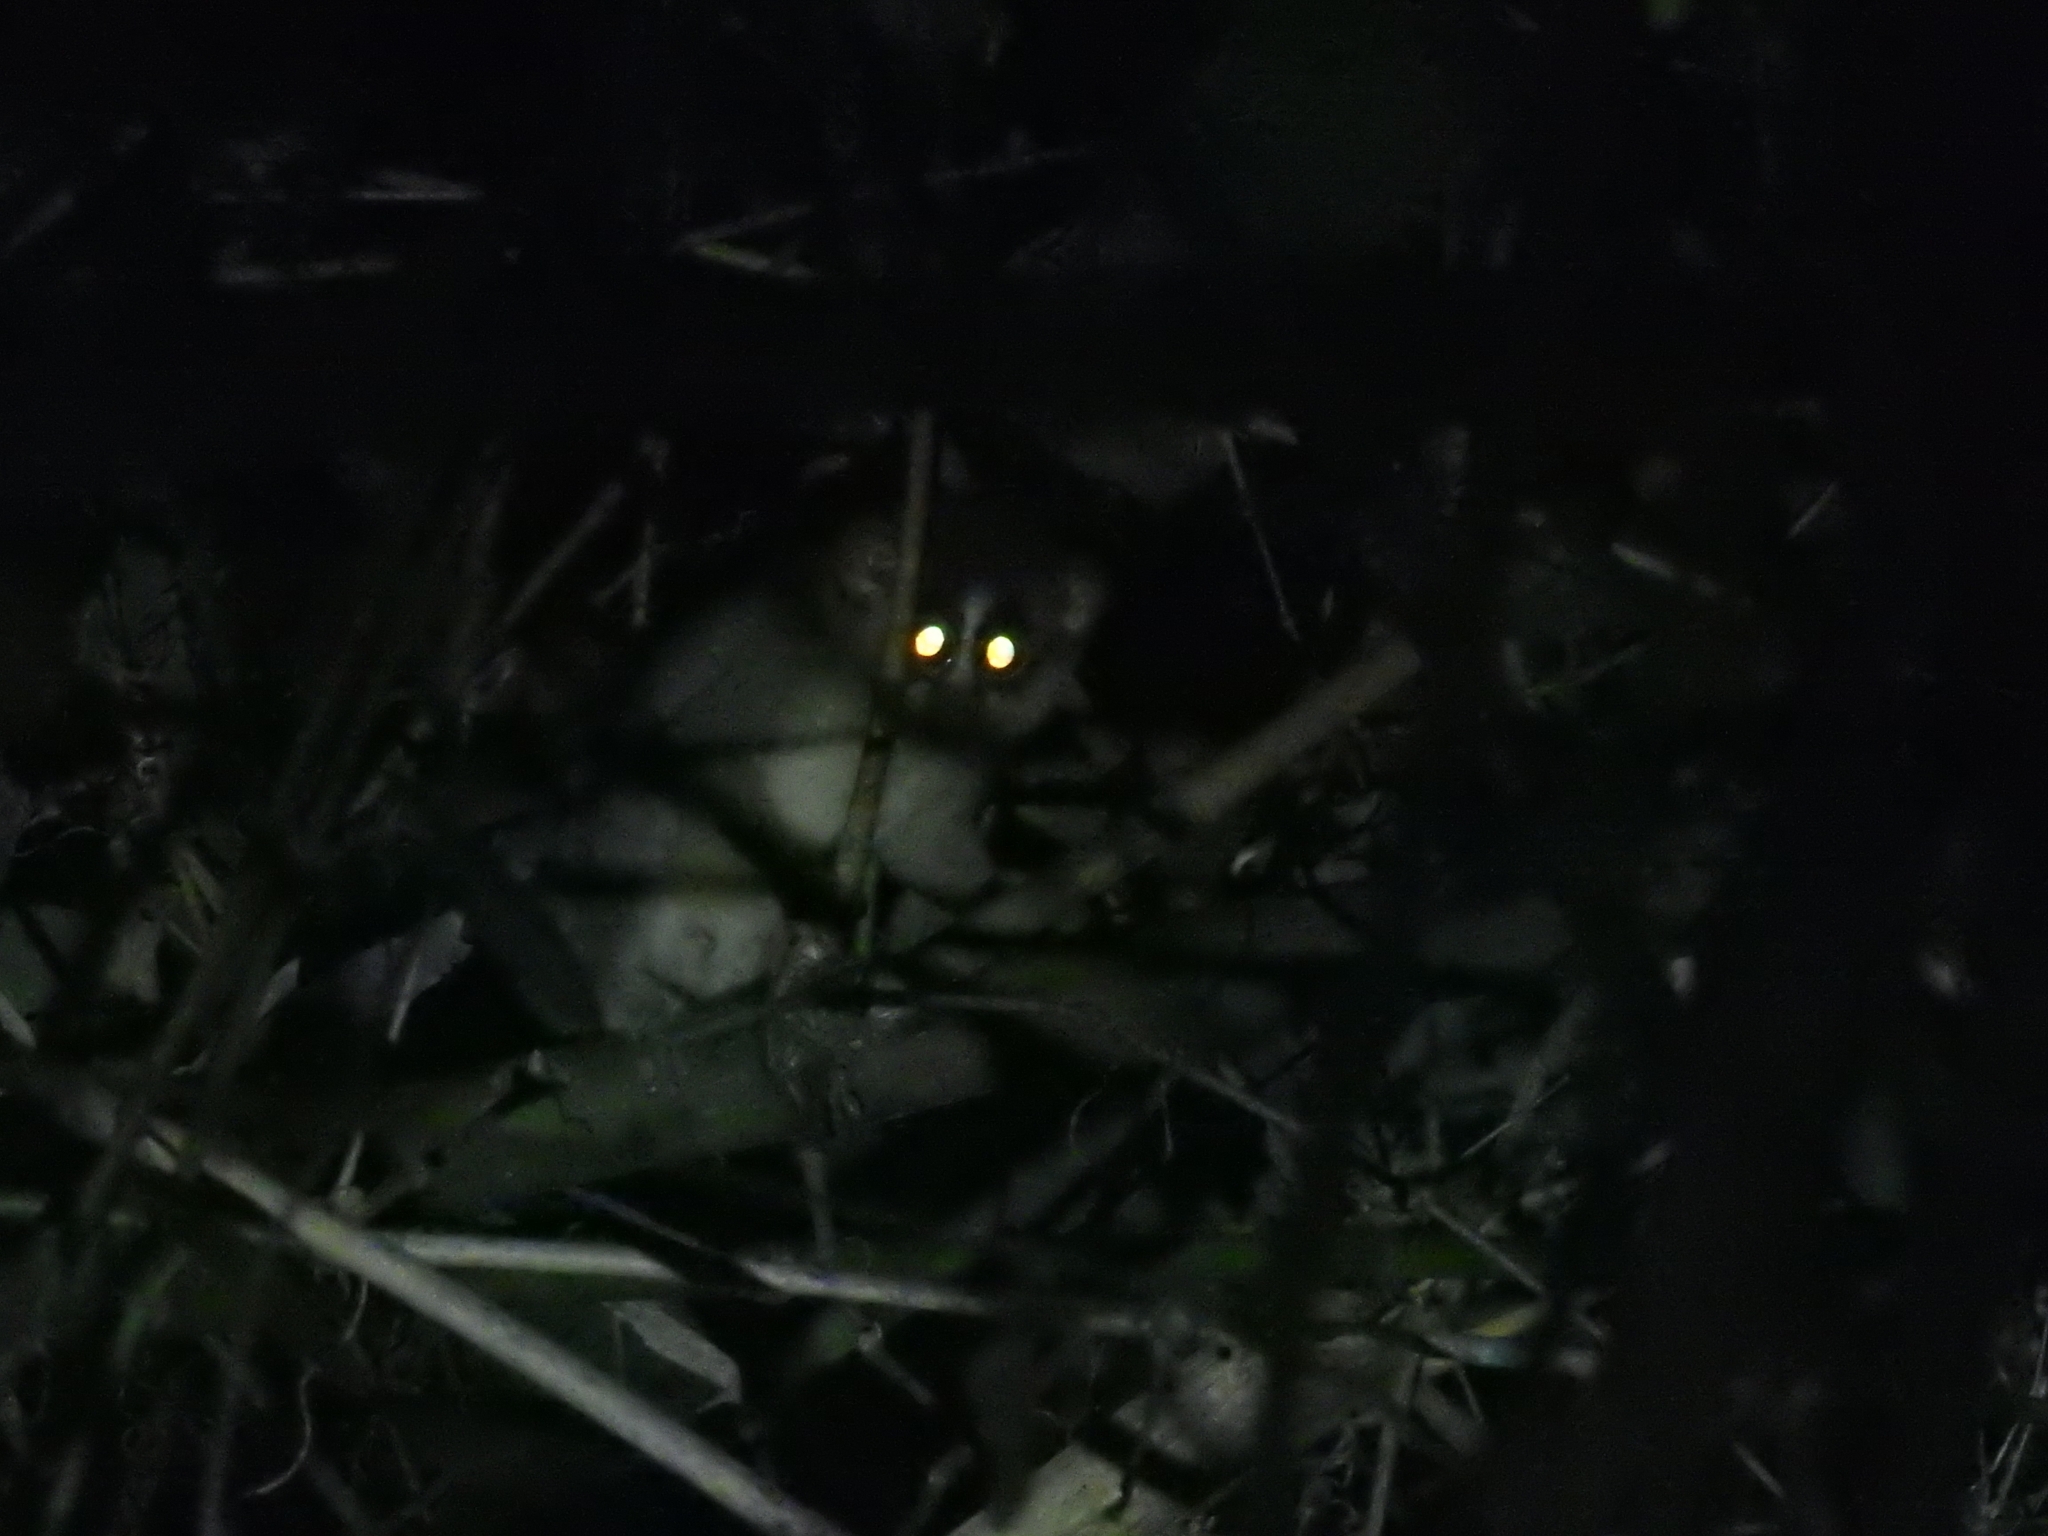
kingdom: Animalia
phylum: Chordata
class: Mammalia
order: Primates
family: Lorisidae
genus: Loris
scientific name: Loris lydekkerianus
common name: Gray slender loris
